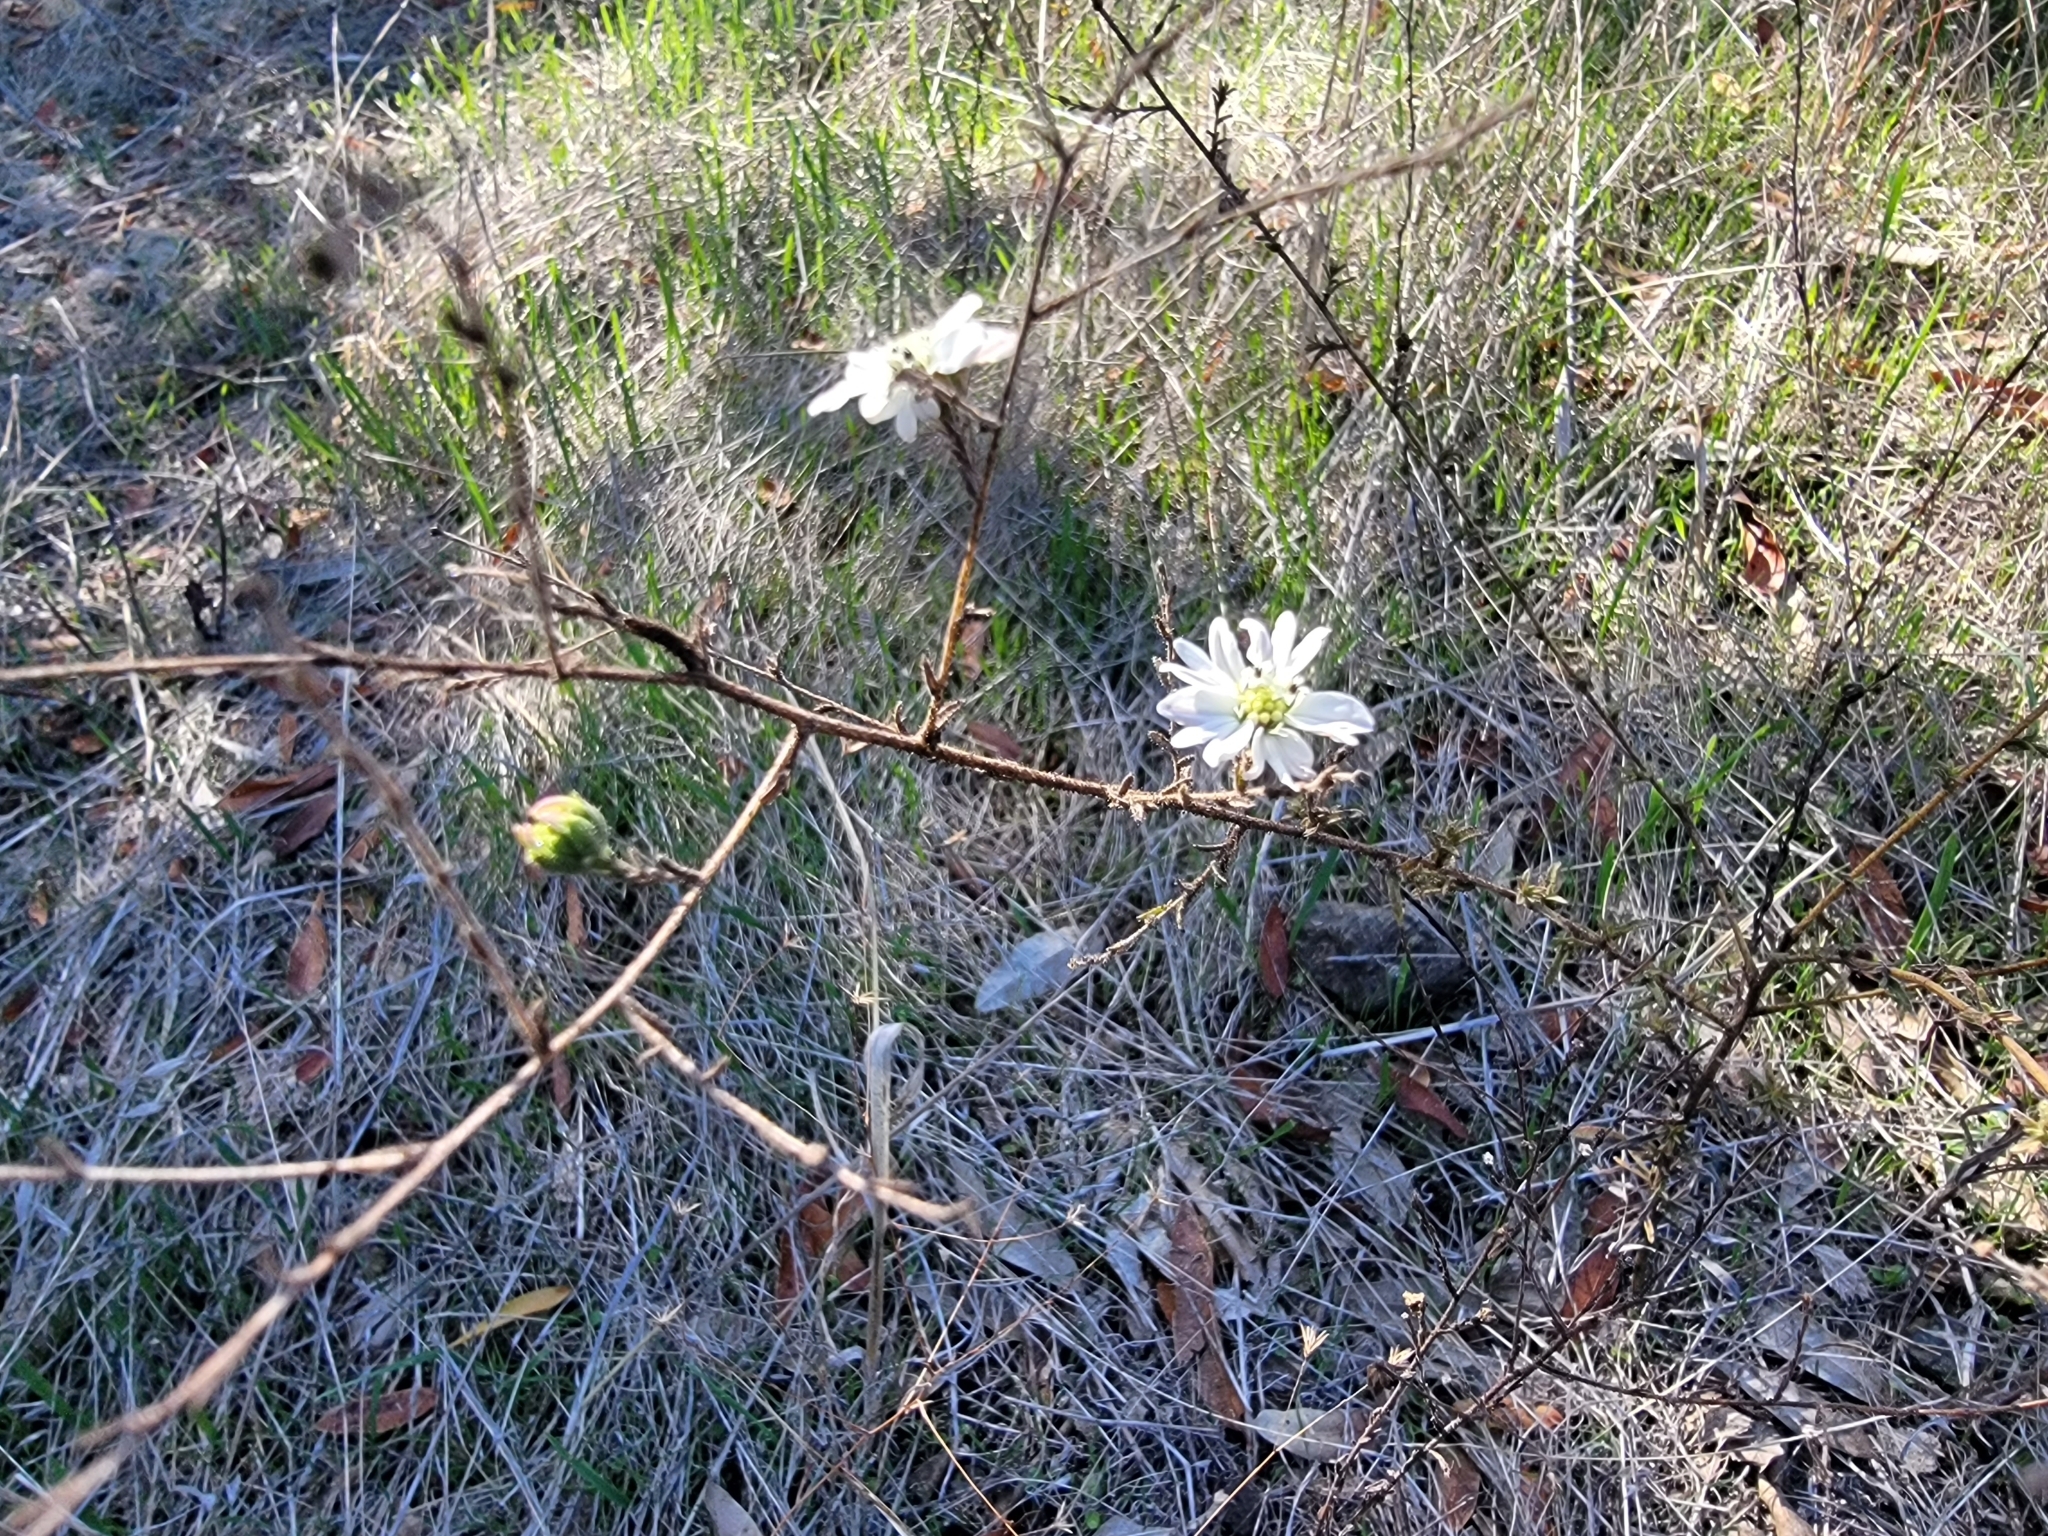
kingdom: Plantae
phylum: Tracheophyta
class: Magnoliopsida
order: Asterales
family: Asteraceae
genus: Hemizonia
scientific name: Hemizonia congesta
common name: Hayfield tarweed
